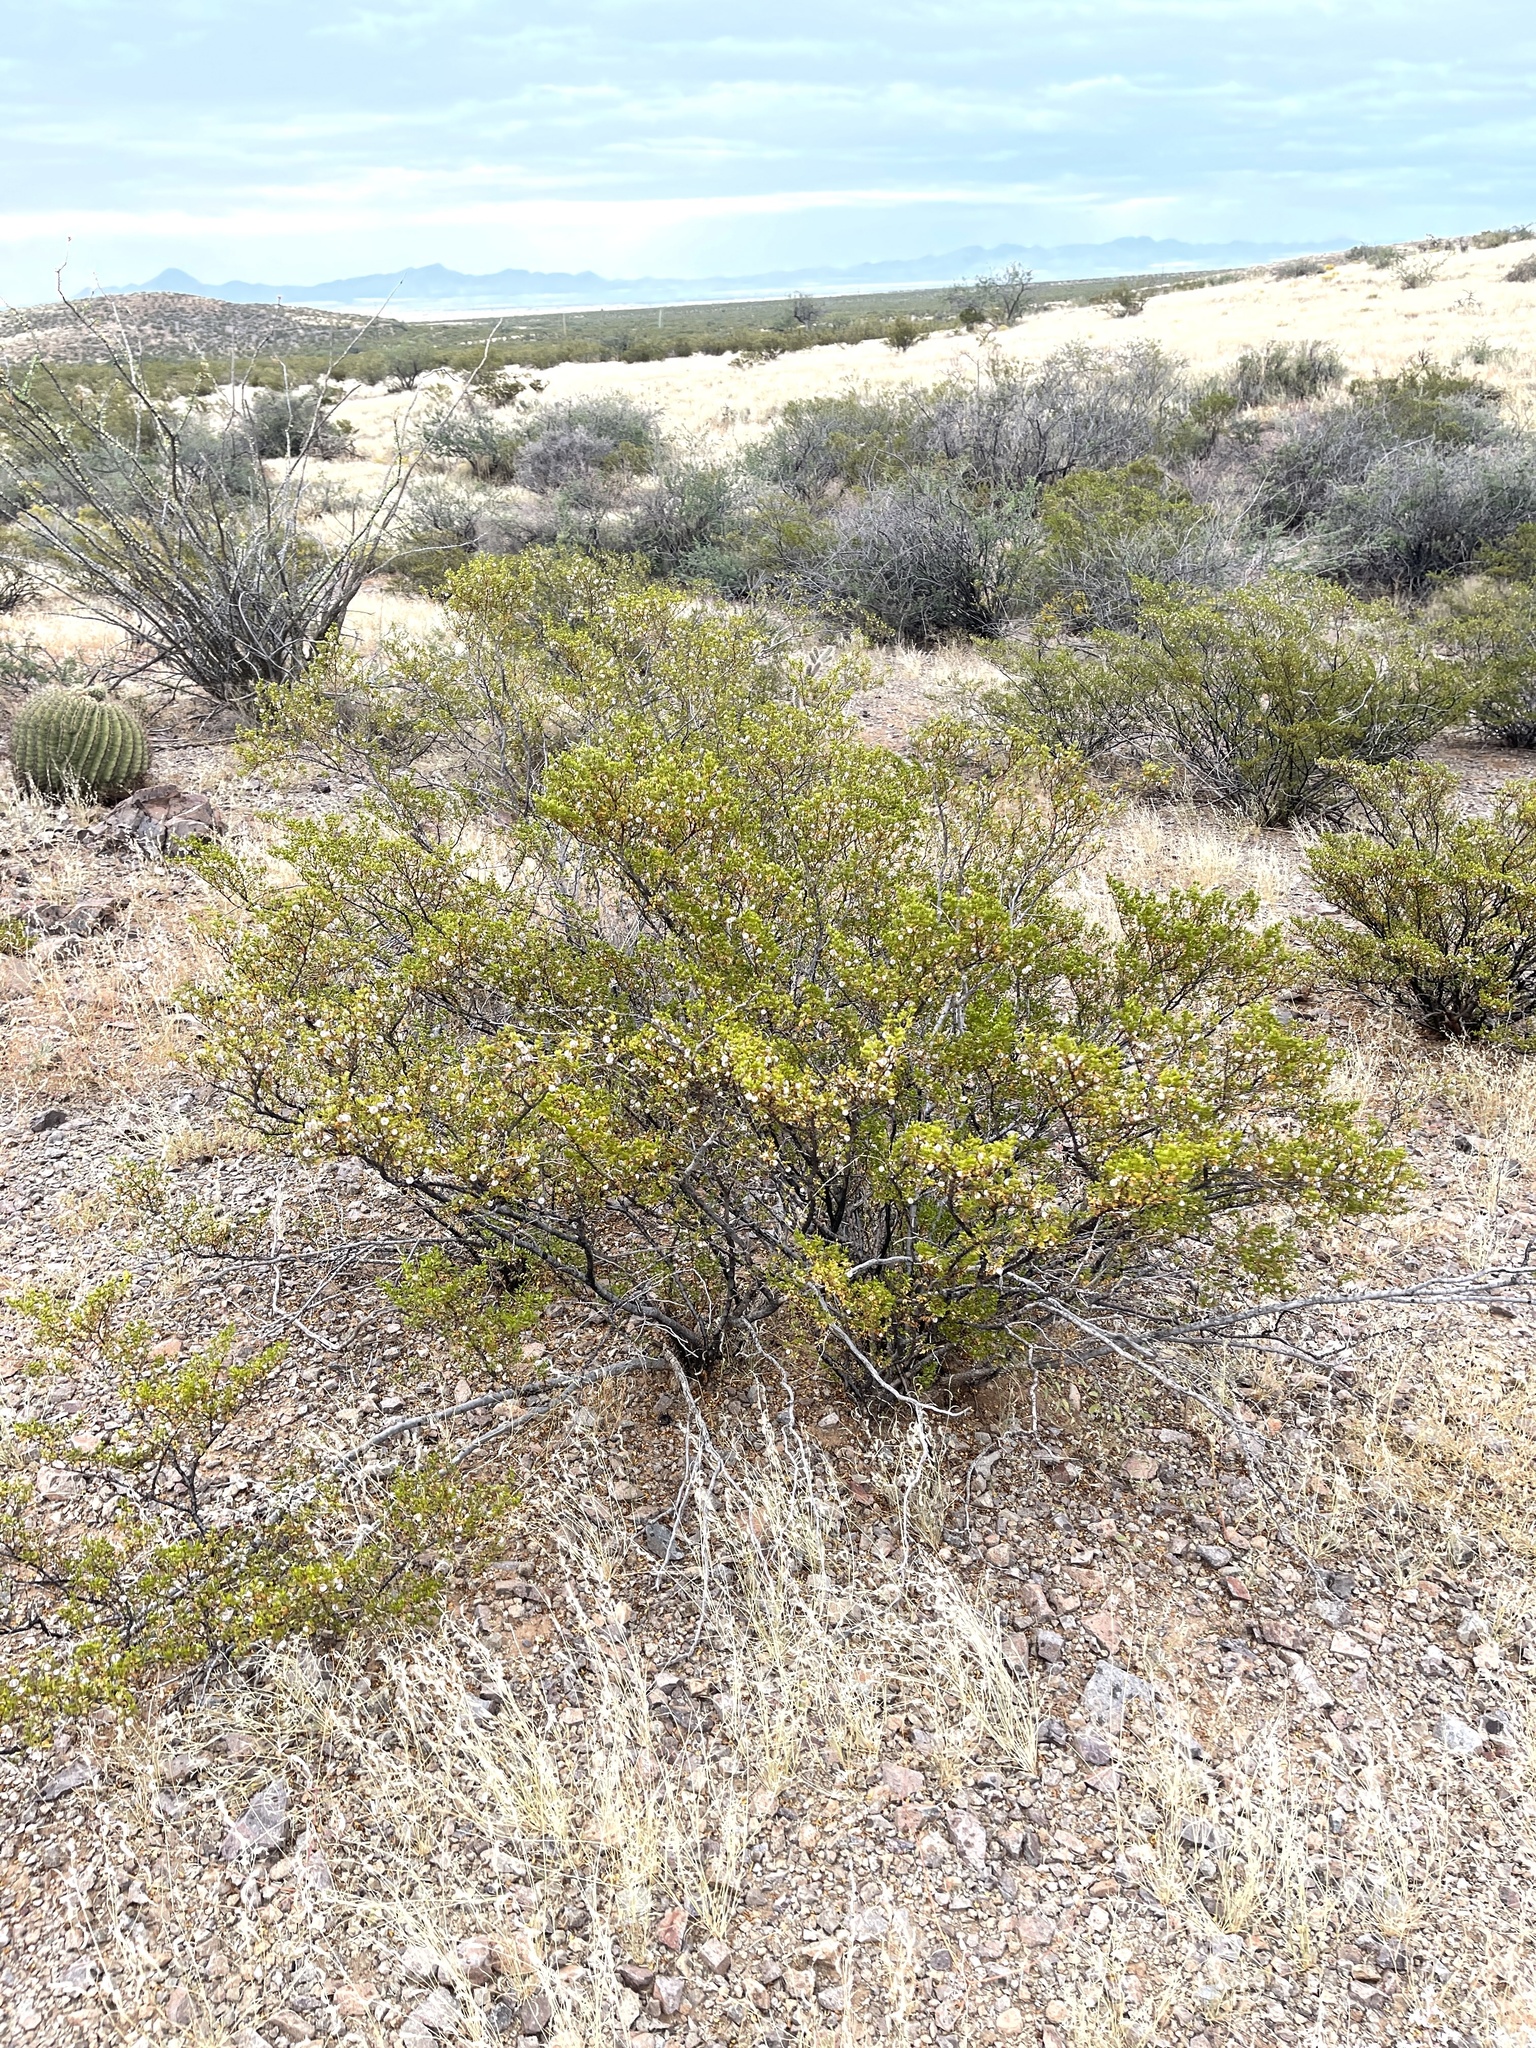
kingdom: Plantae
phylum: Tracheophyta
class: Magnoliopsida
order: Zygophyllales
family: Zygophyllaceae
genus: Larrea
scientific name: Larrea tridentata
